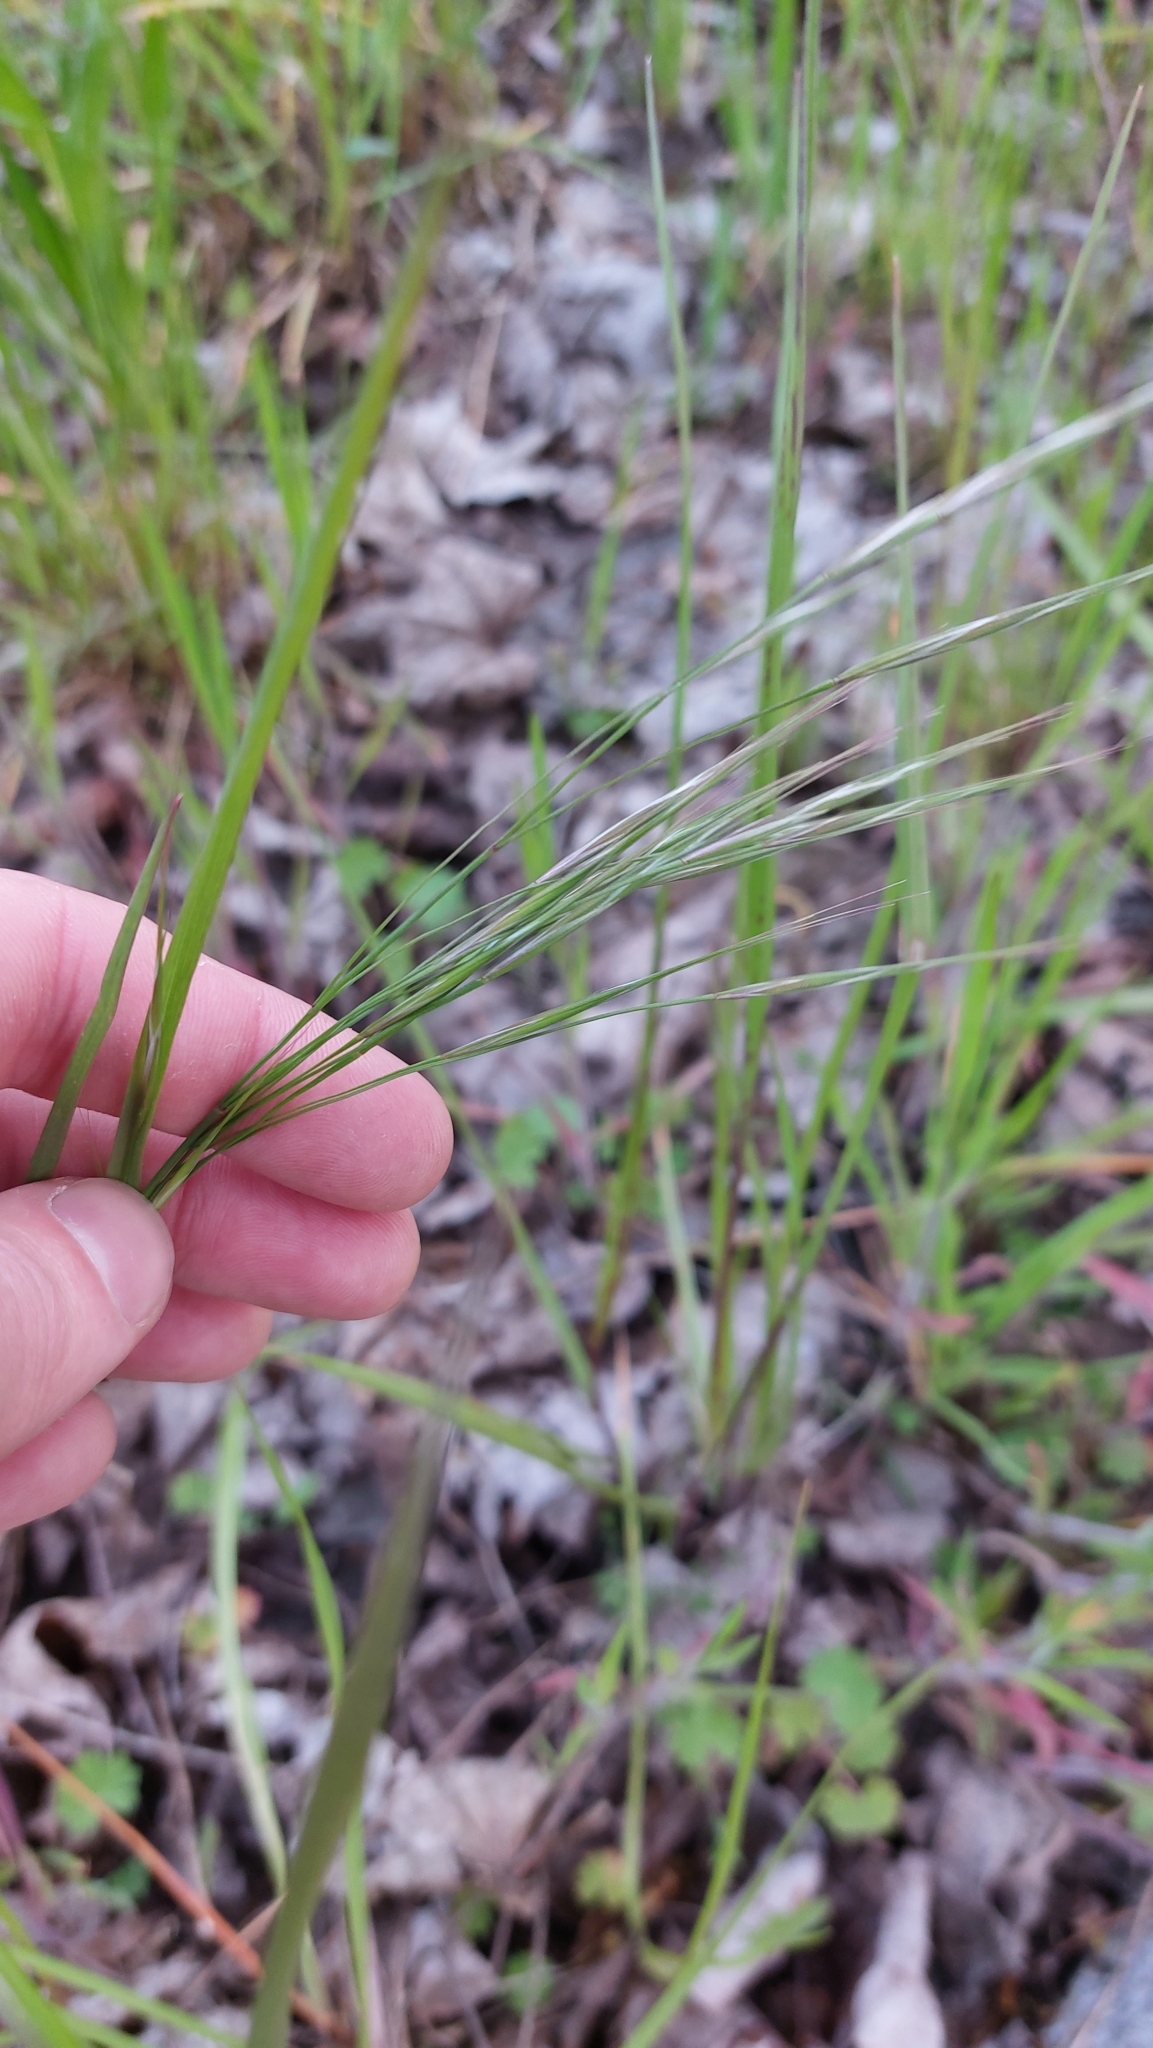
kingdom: Plantae
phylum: Tracheophyta
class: Liliopsida
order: Poales
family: Poaceae
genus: Bromus
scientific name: Bromus sterilis
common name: Poverty brome
